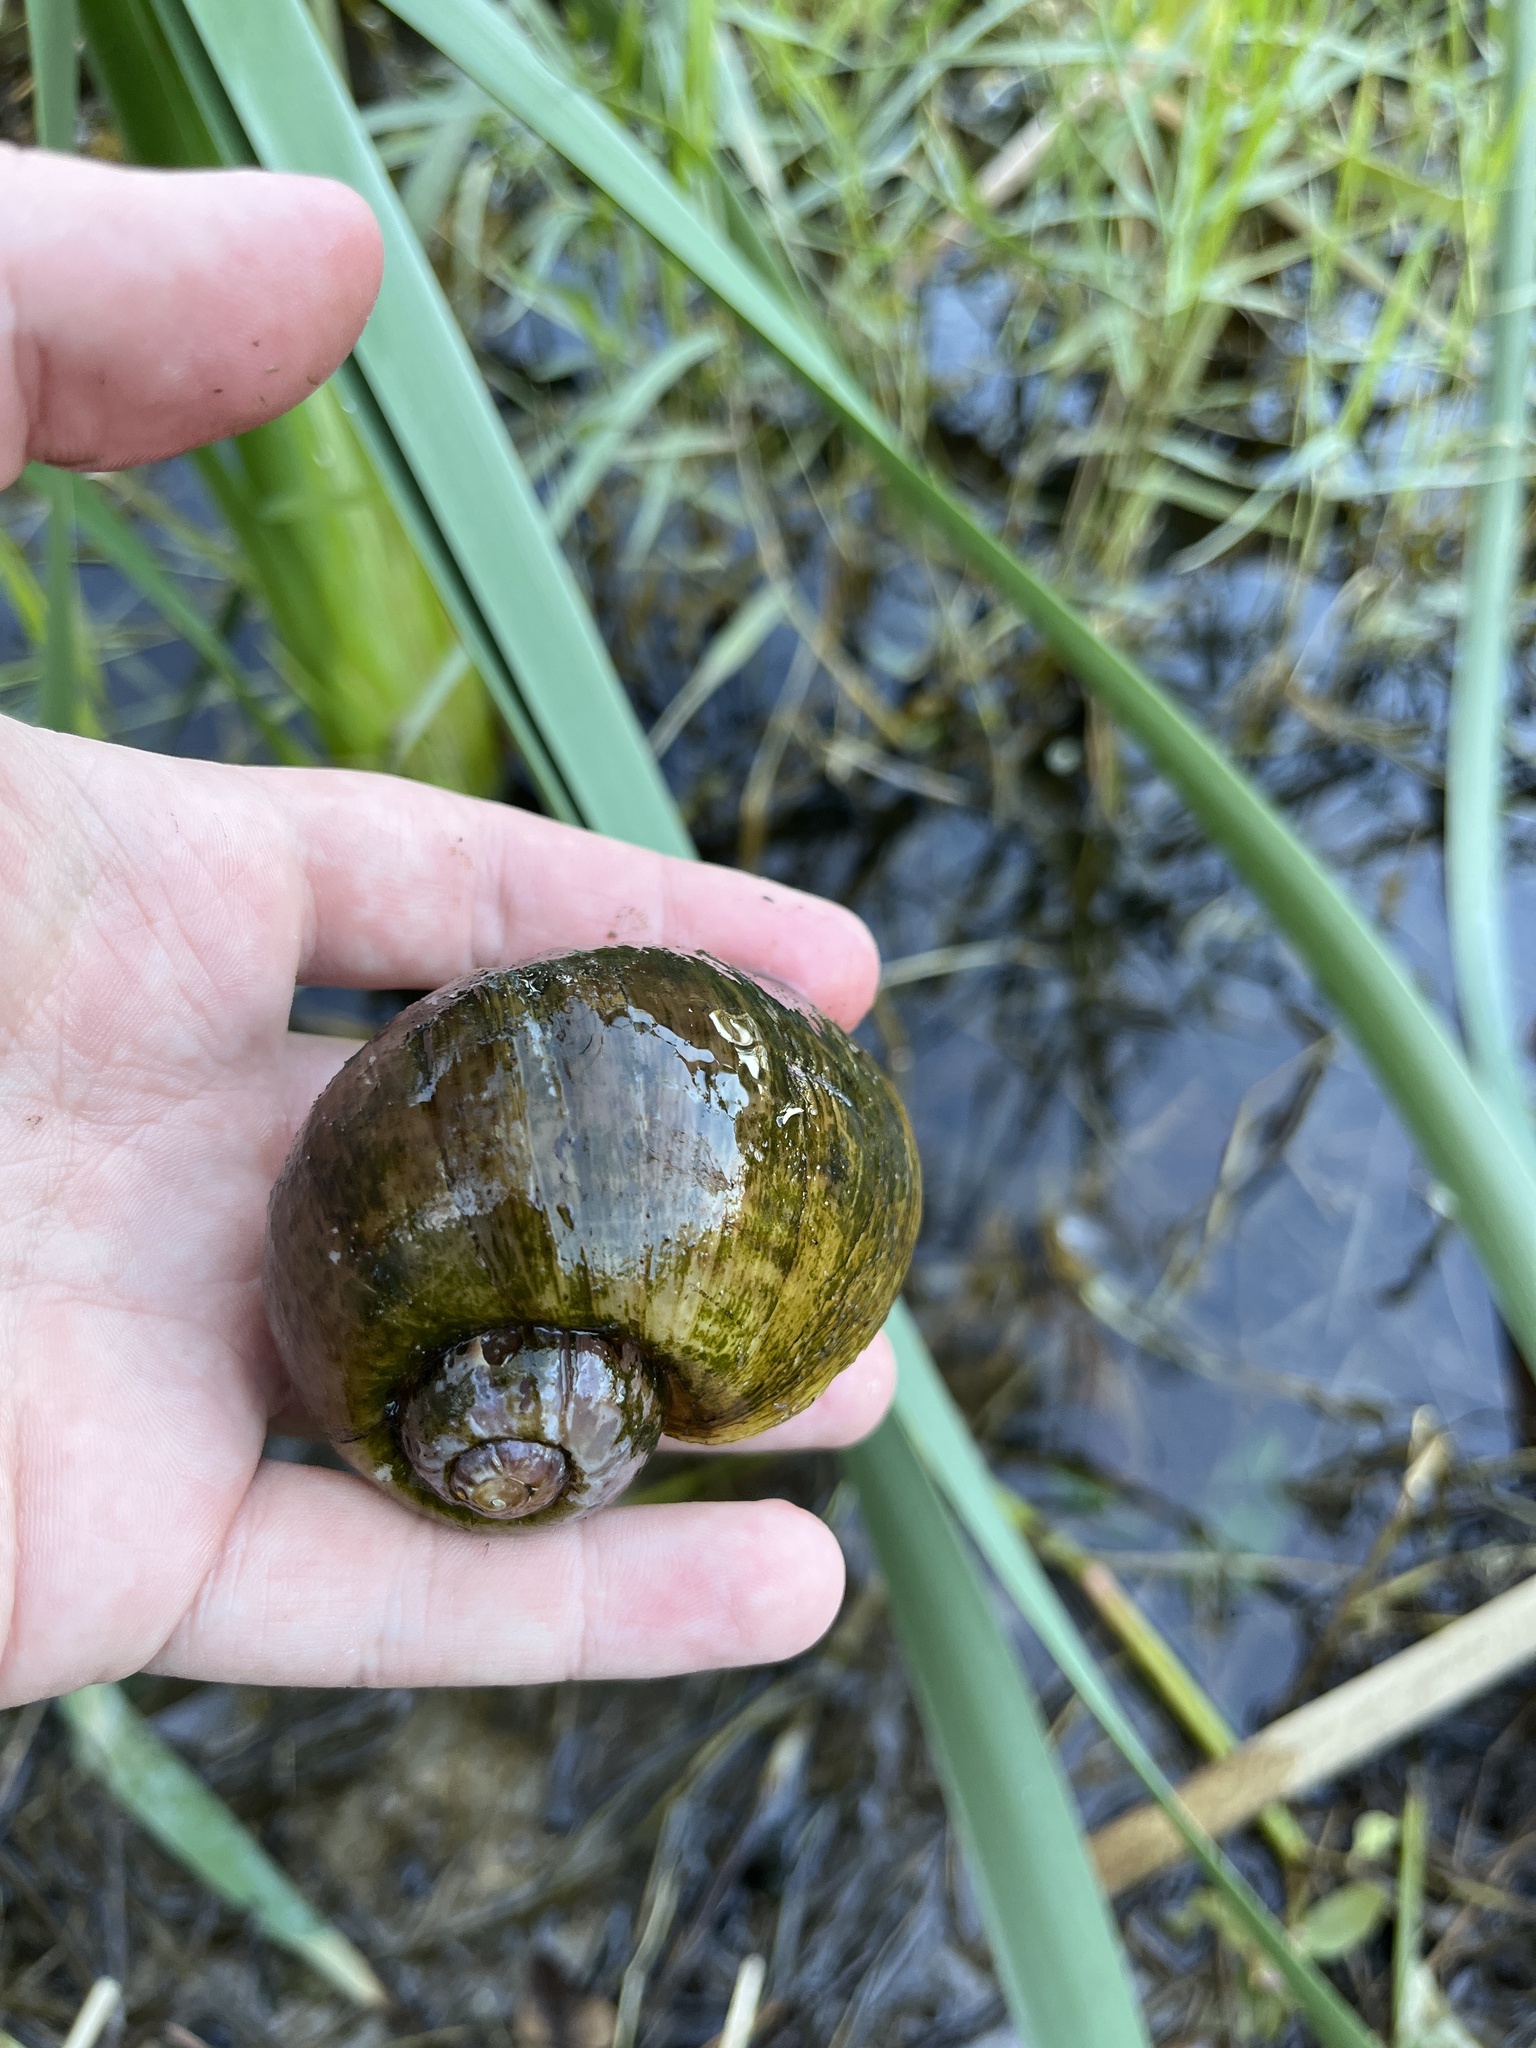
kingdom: Animalia
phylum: Mollusca
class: Gastropoda
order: Architaenioglossa
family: Ampullariidae
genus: Pomacea
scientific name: Pomacea maculata
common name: Giant applesnail
